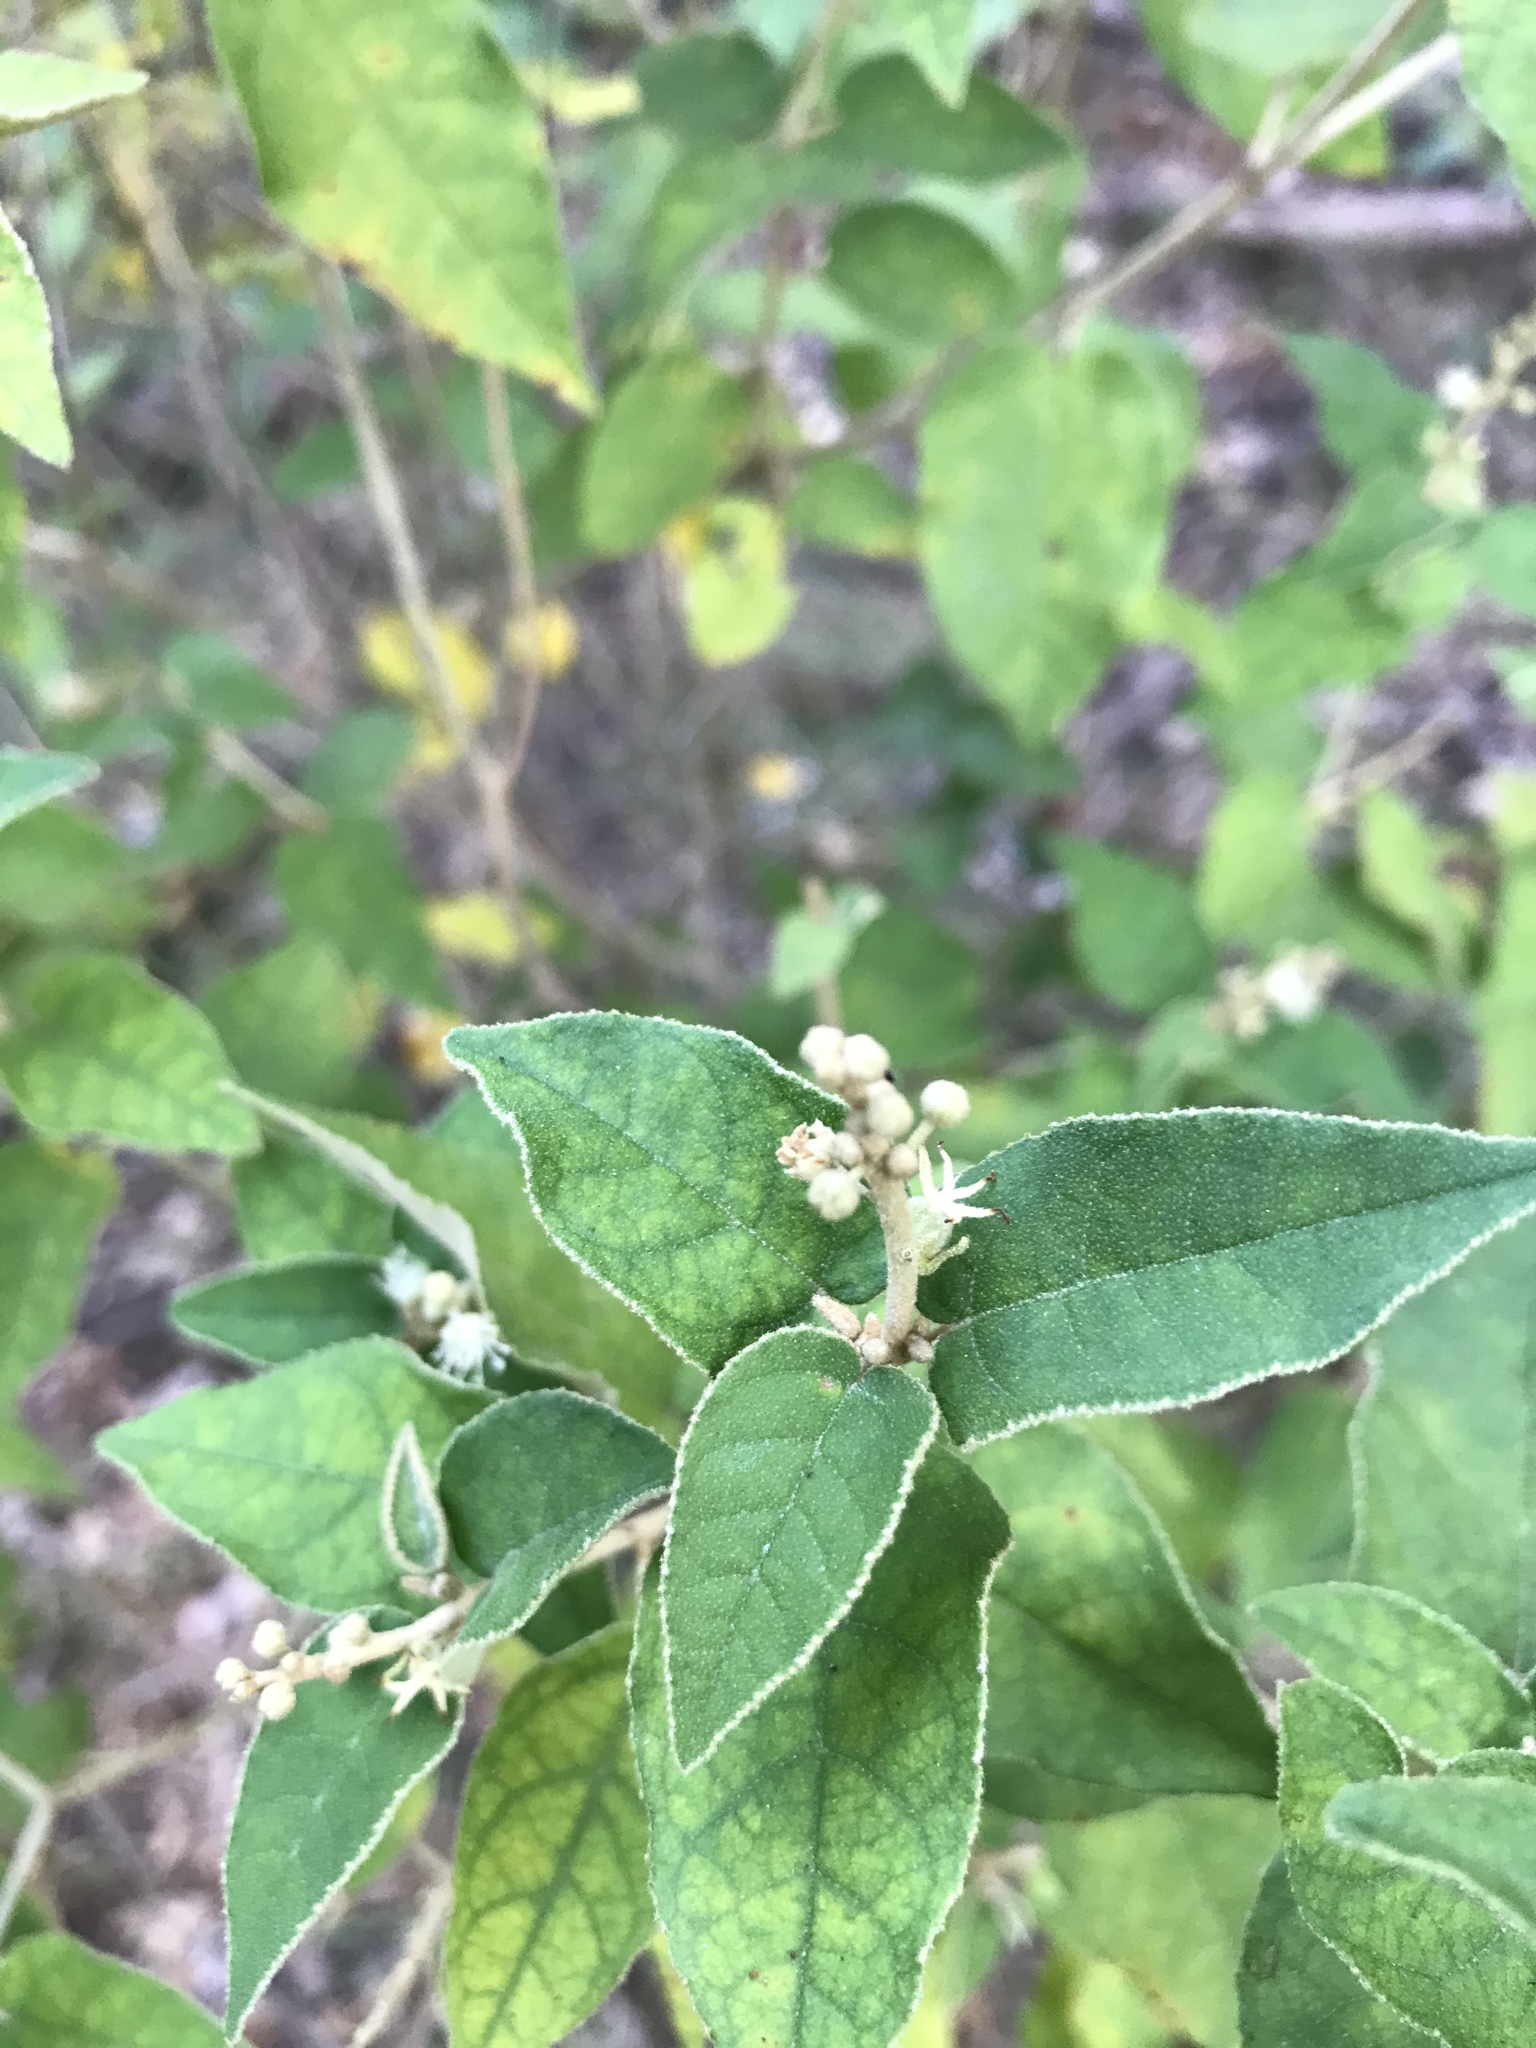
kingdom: Plantae
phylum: Tracheophyta
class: Magnoliopsida
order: Malpighiales
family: Euphorbiaceae
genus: Croton
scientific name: Croton fruticulosus
